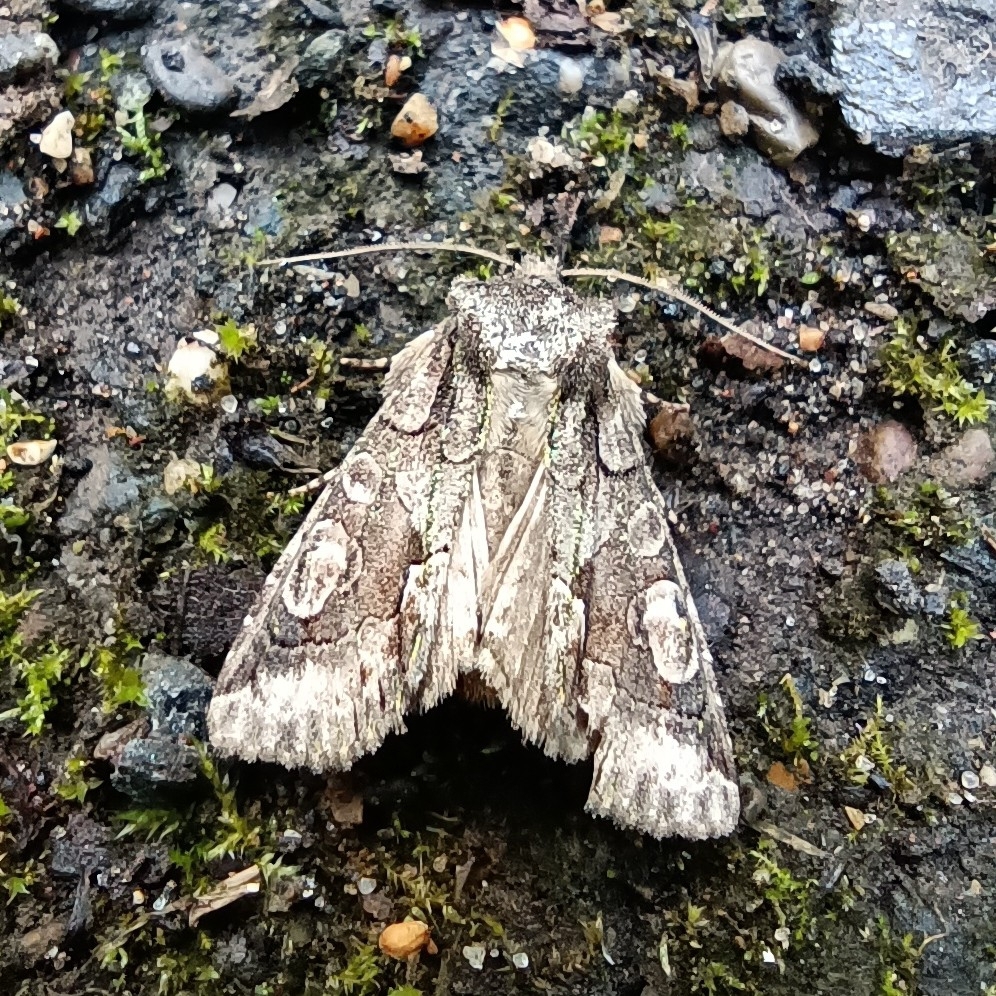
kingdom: Animalia
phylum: Arthropoda
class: Insecta
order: Lepidoptera
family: Noctuidae
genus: Allophyes
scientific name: Allophyes oxyacanthae
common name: Green-brindled crescent
